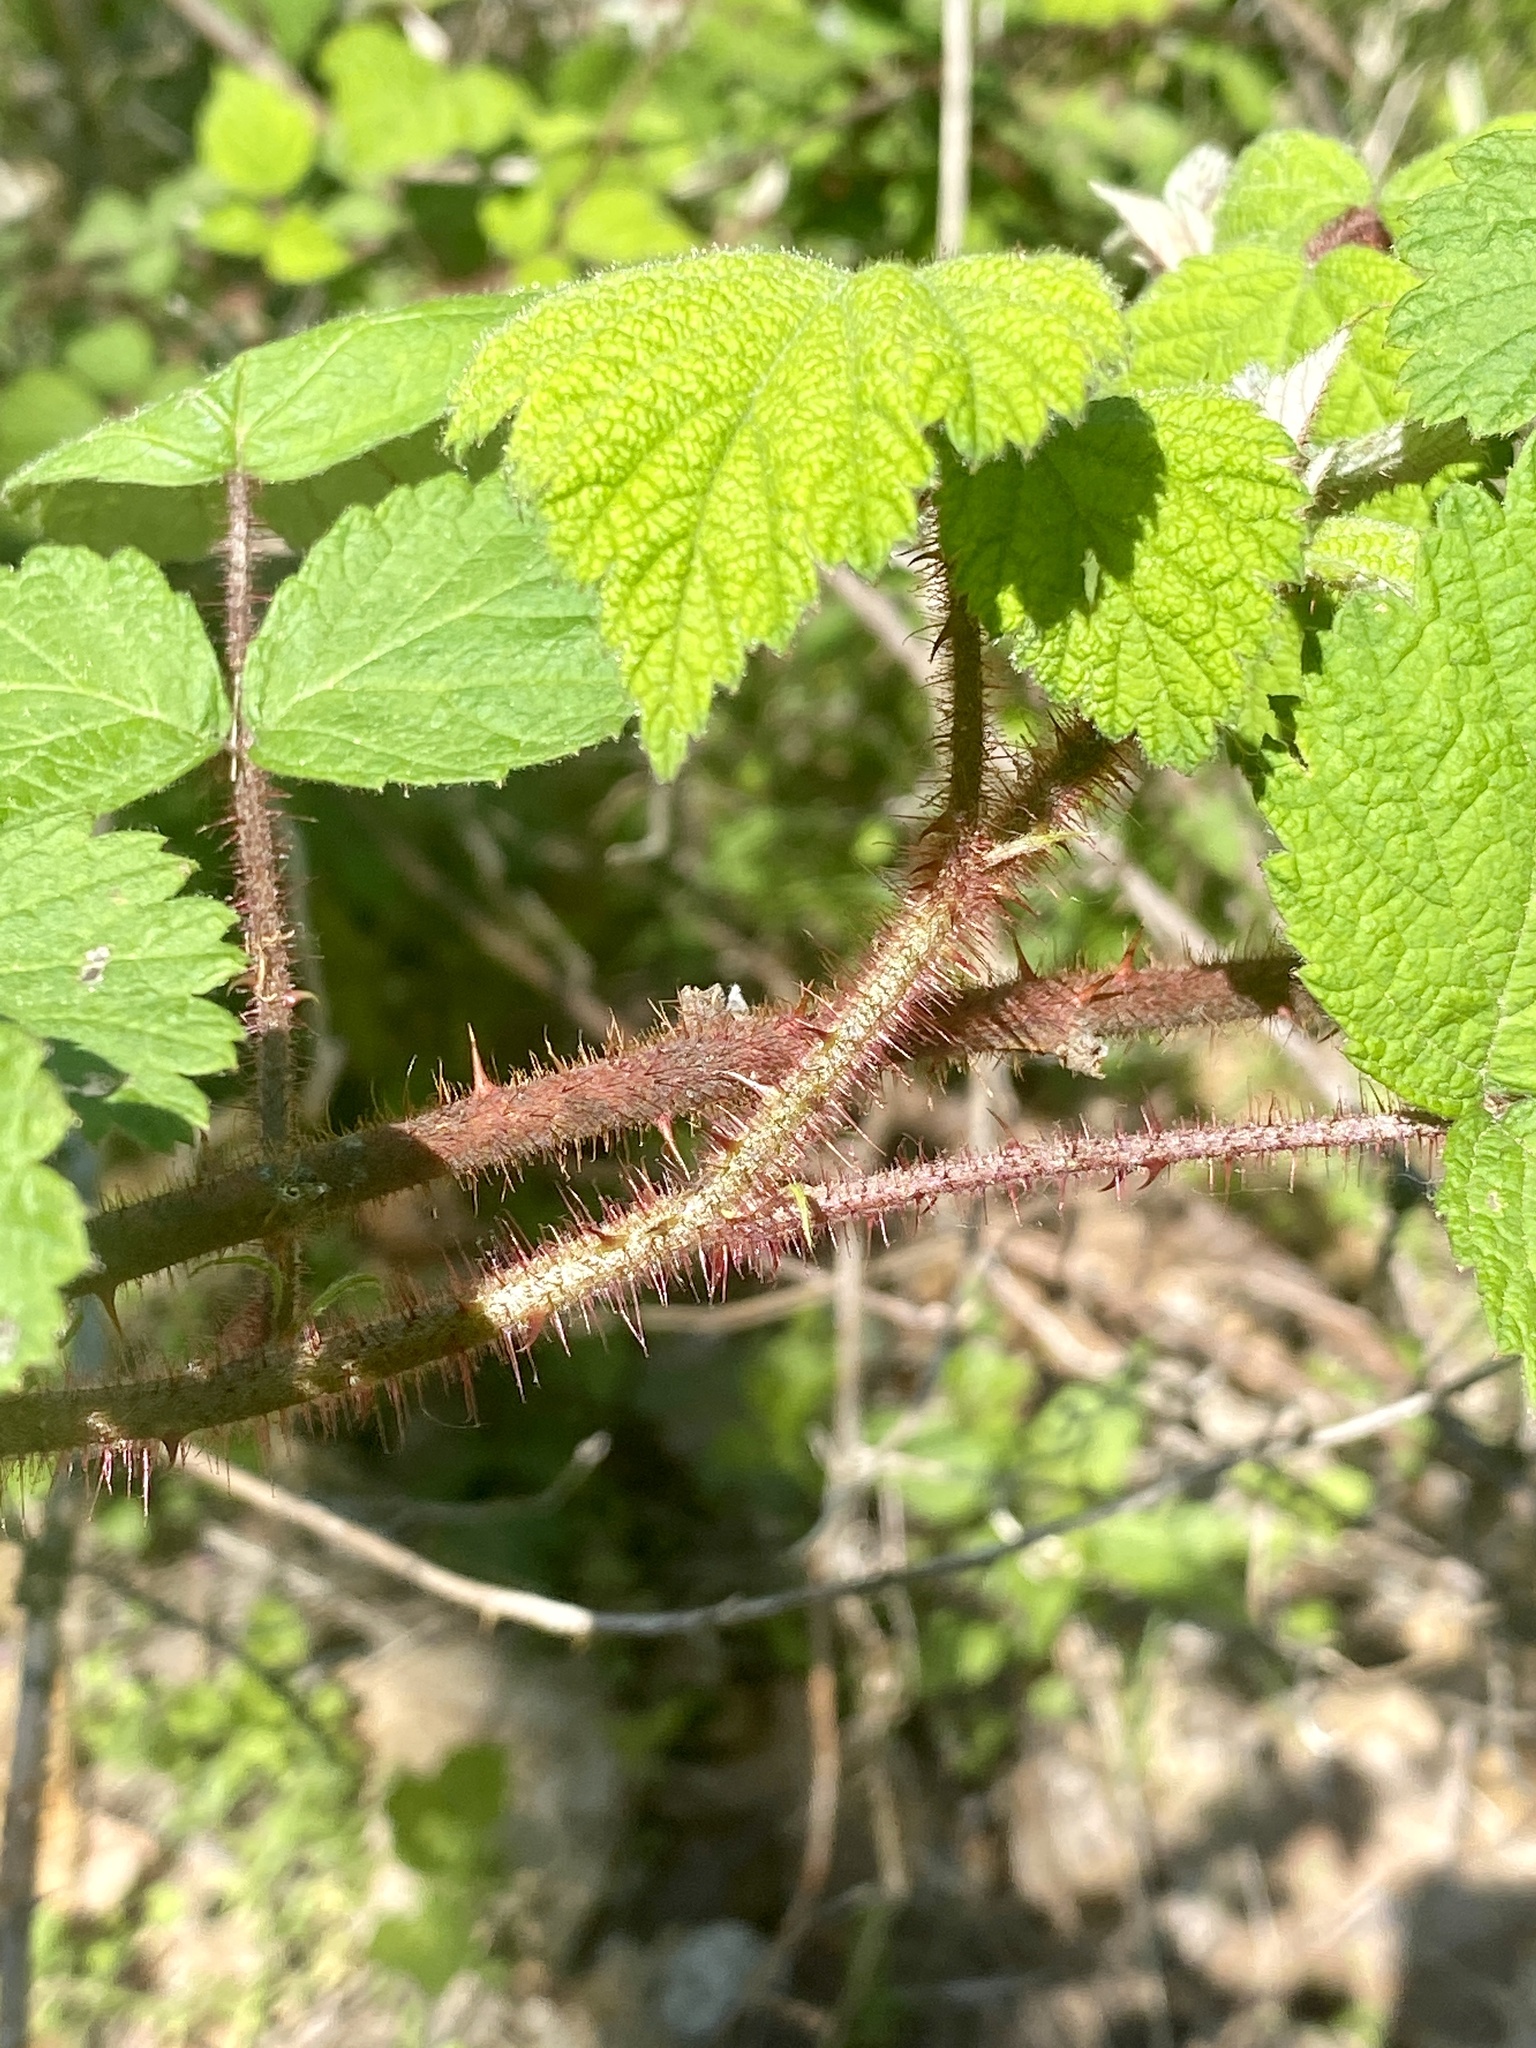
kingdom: Plantae
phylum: Tracheophyta
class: Magnoliopsida
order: Rosales
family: Rosaceae
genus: Rubus
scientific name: Rubus phoenicolasius
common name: Japanese wineberry
